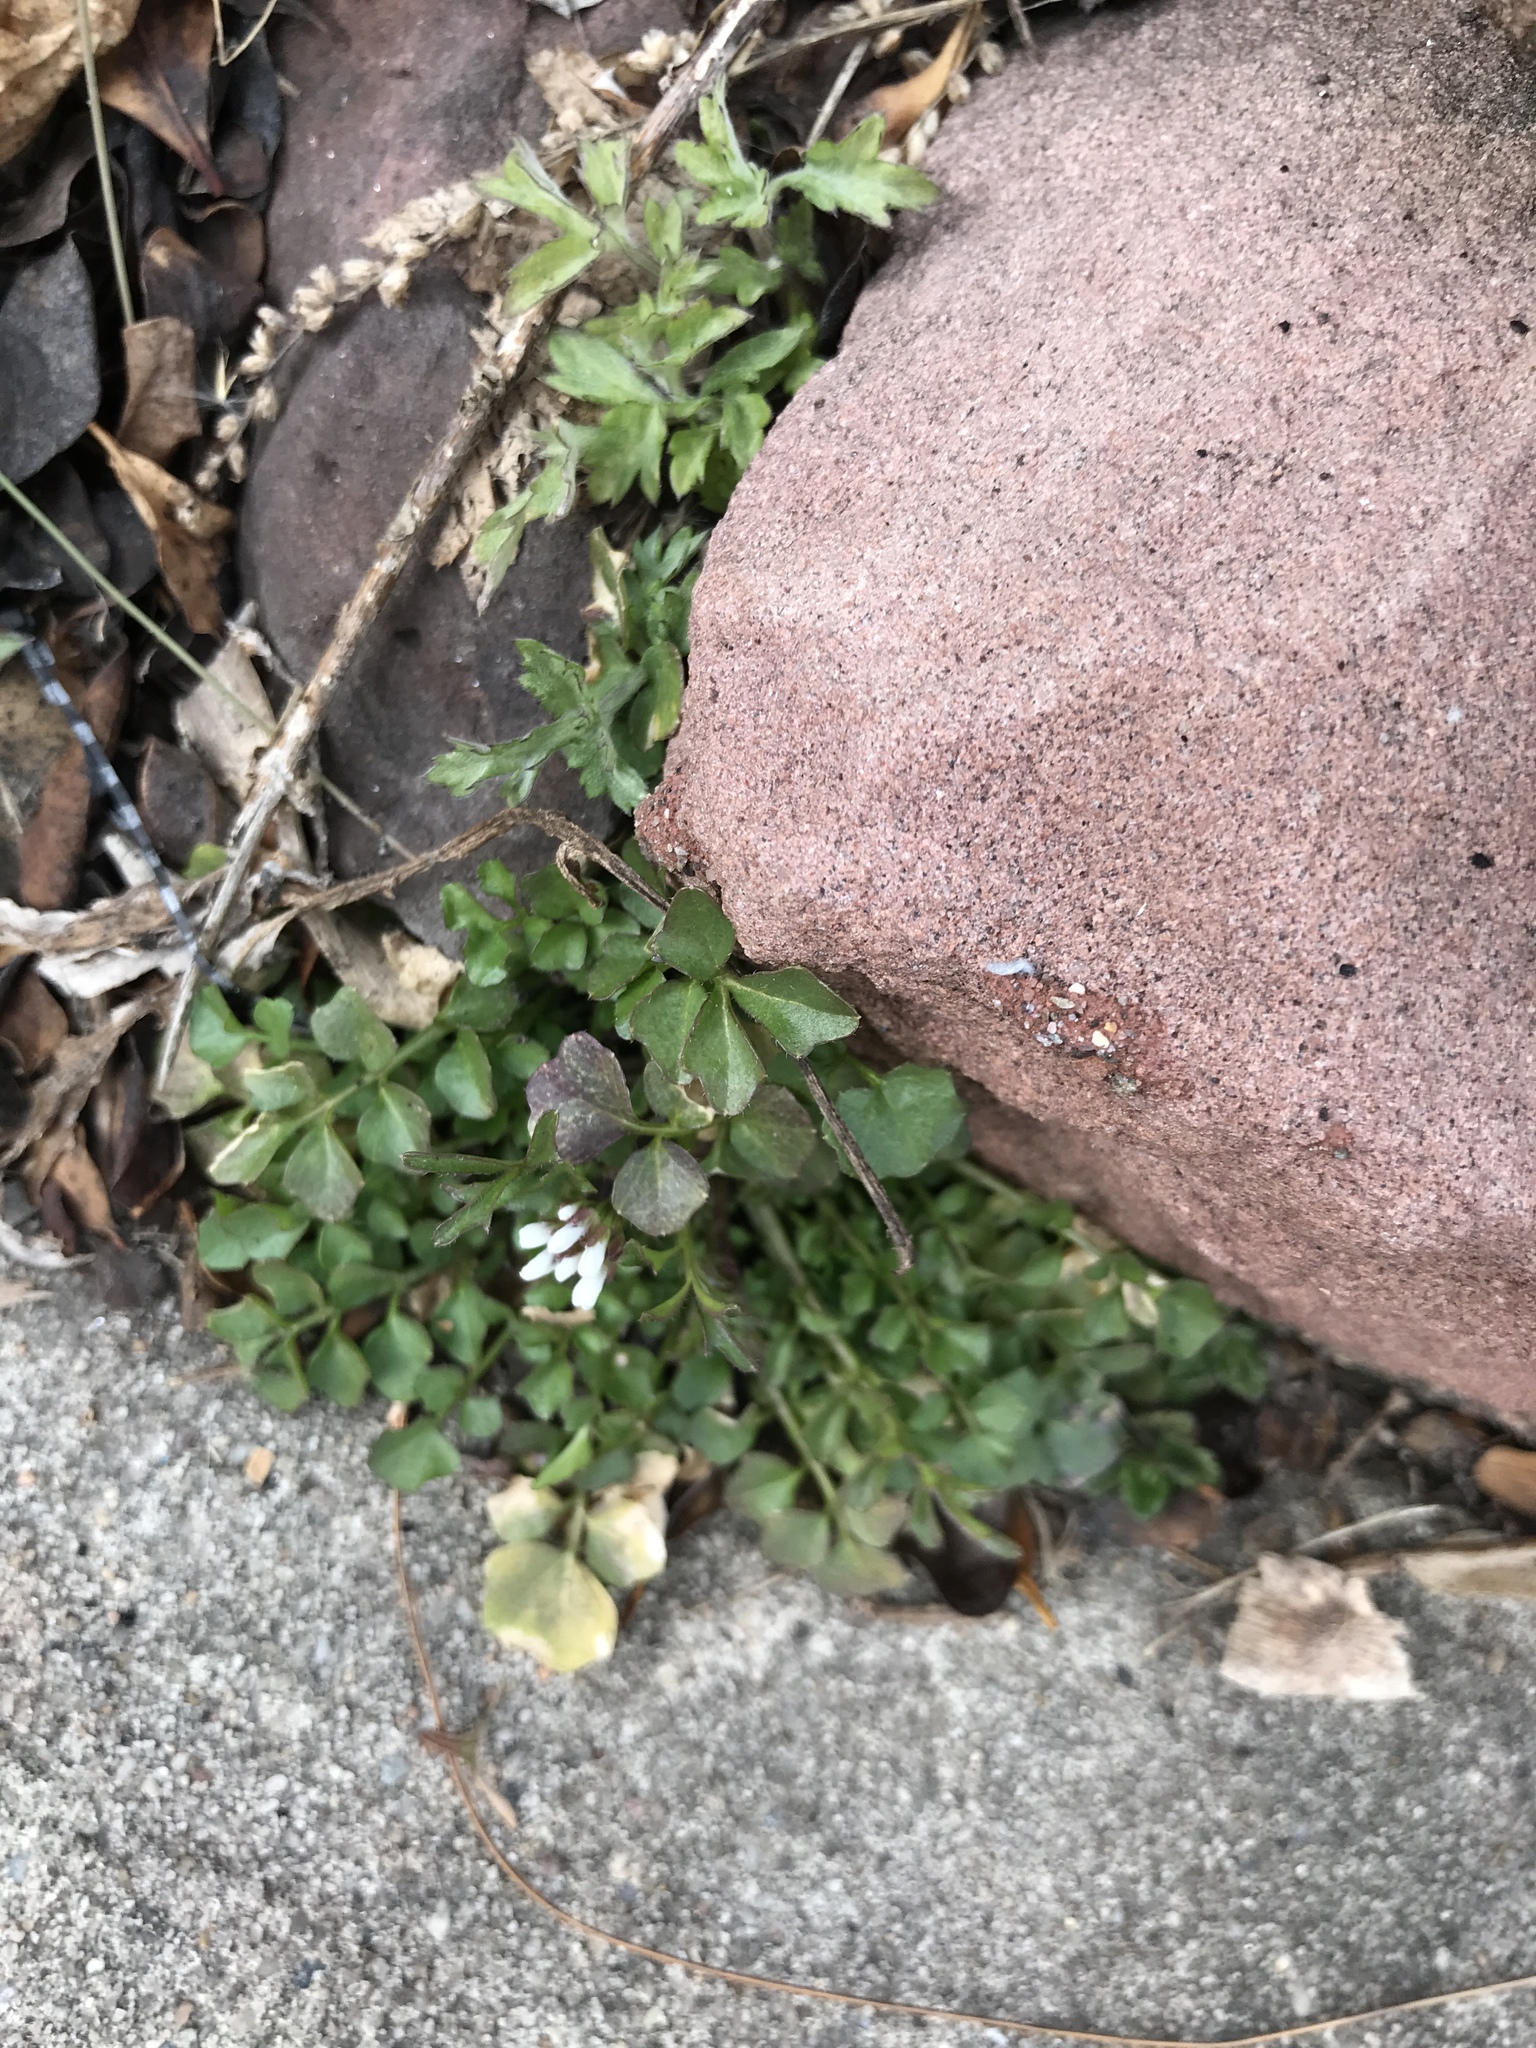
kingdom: Plantae
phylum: Tracheophyta
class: Magnoliopsida
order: Brassicales
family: Brassicaceae
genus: Cardamine
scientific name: Cardamine hirsuta
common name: Hairy bittercress
